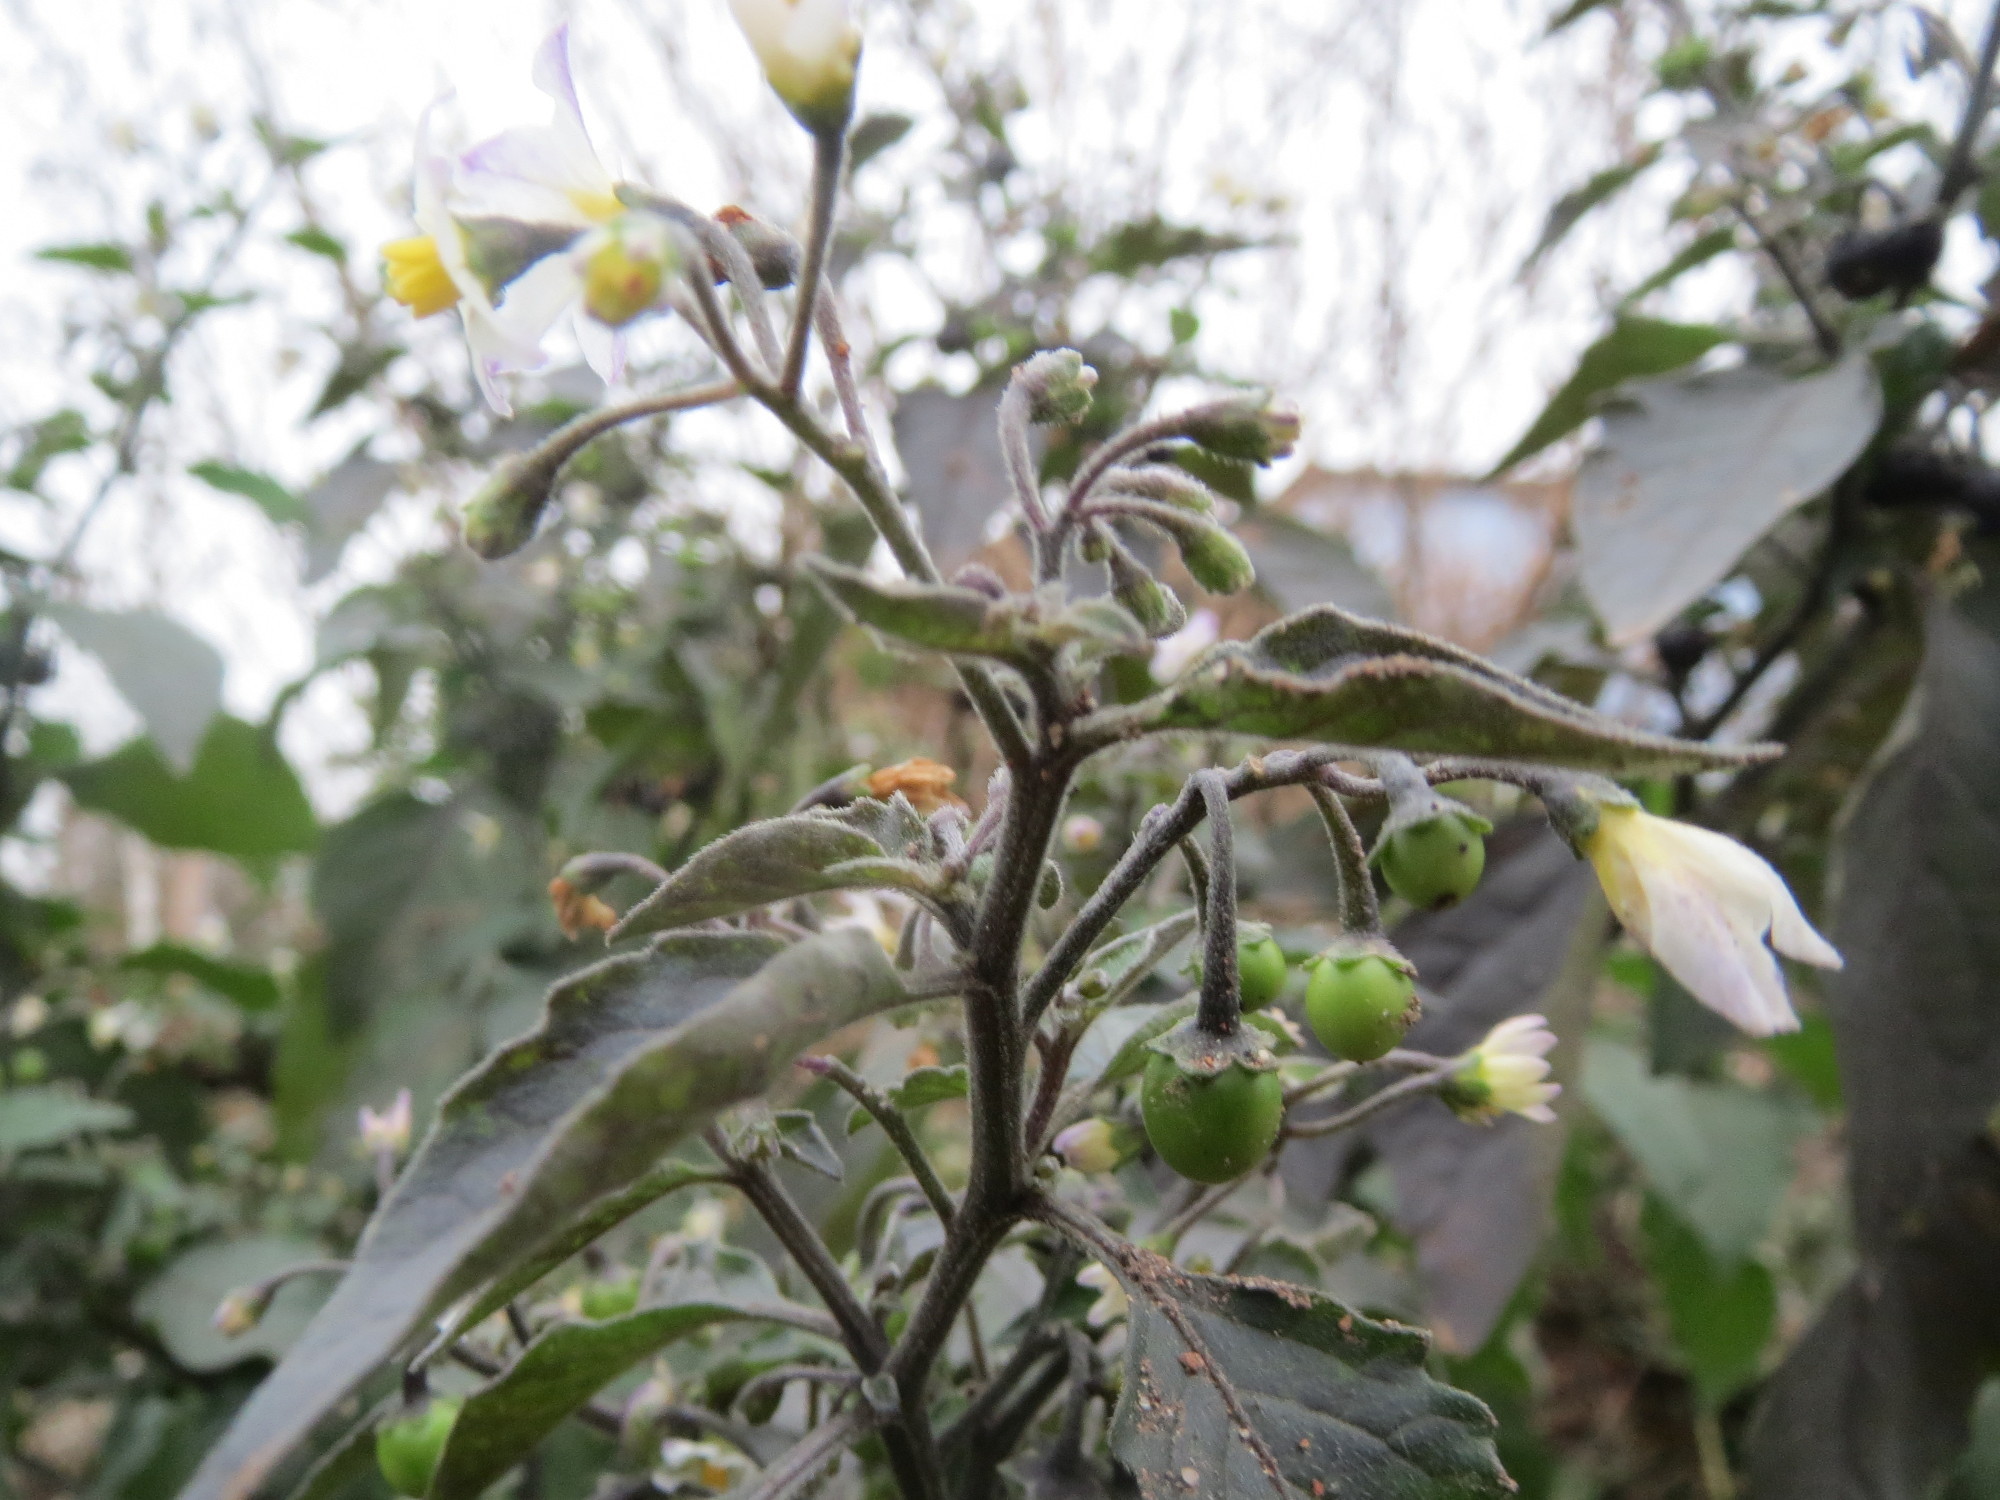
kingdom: Plantae
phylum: Tracheophyta
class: Magnoliopsida
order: Solanales
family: Solanaceae
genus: Solanum
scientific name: Solanum nigrum
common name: Black nightshade
